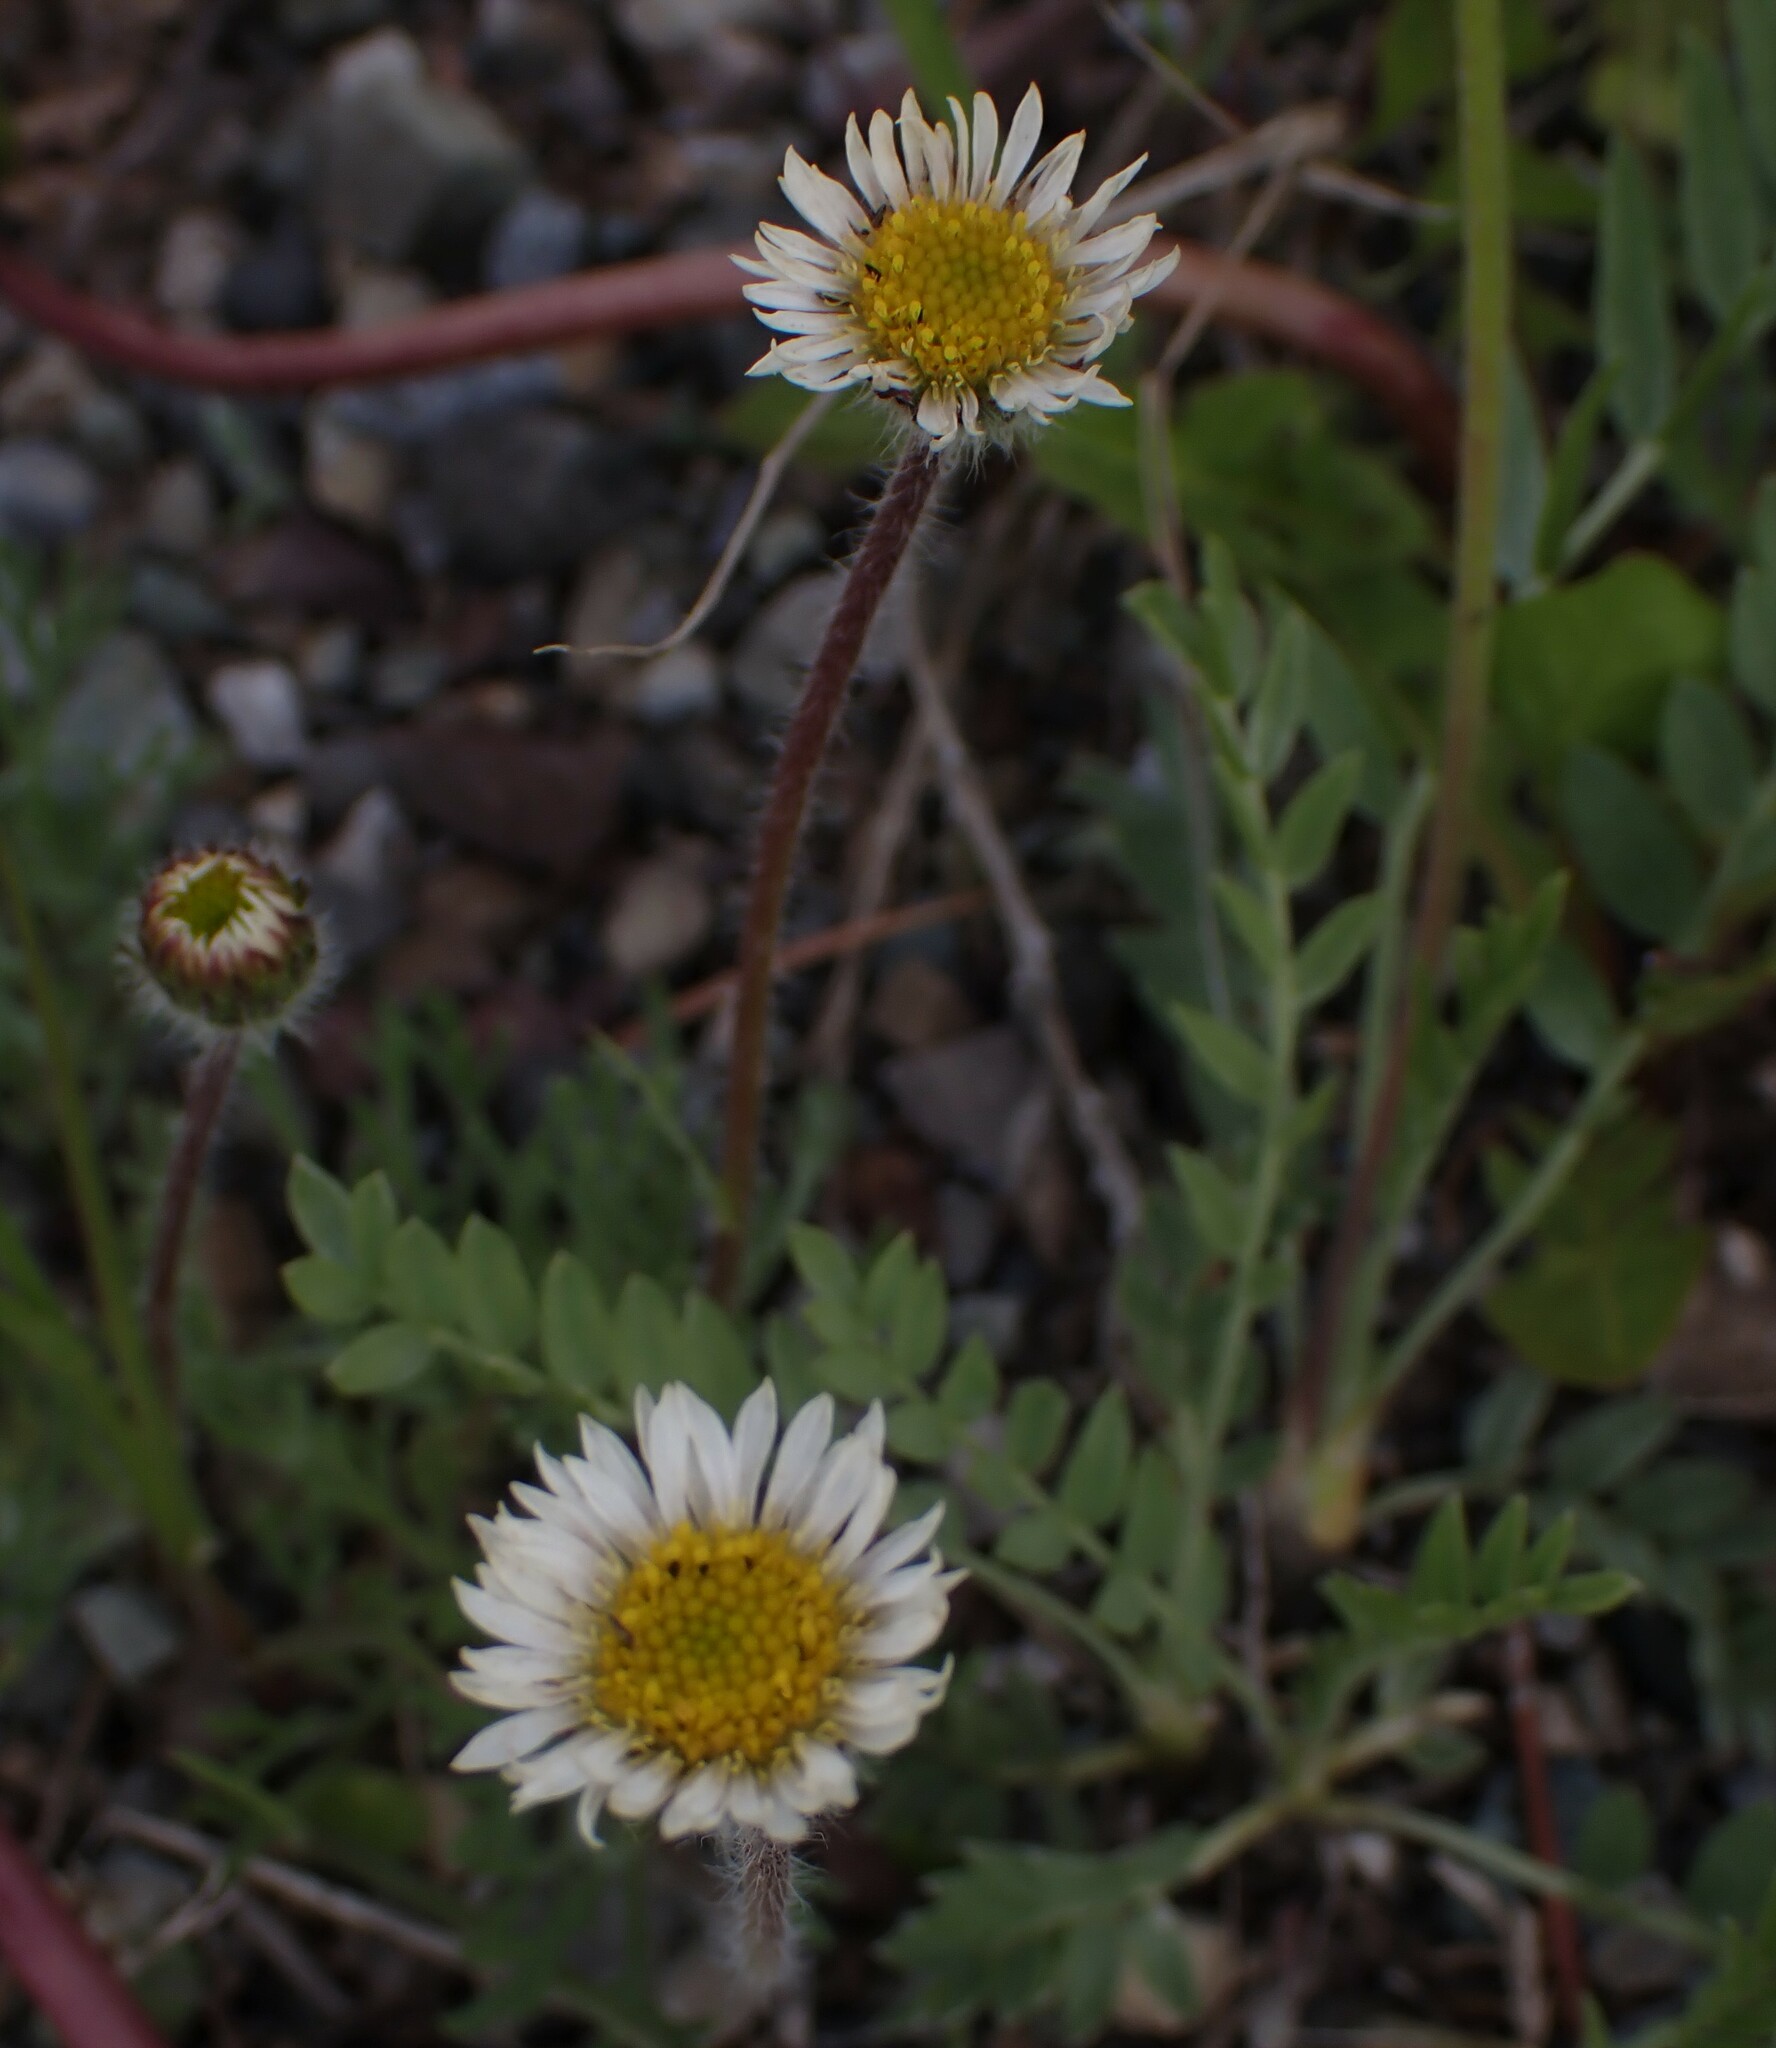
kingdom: Plantae
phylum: Tracheophyta
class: Magnoliopsida
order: Asterales
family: Asteraceae
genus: Erigeron
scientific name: Erigeron compositus
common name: Dwarf mountain fleabane
